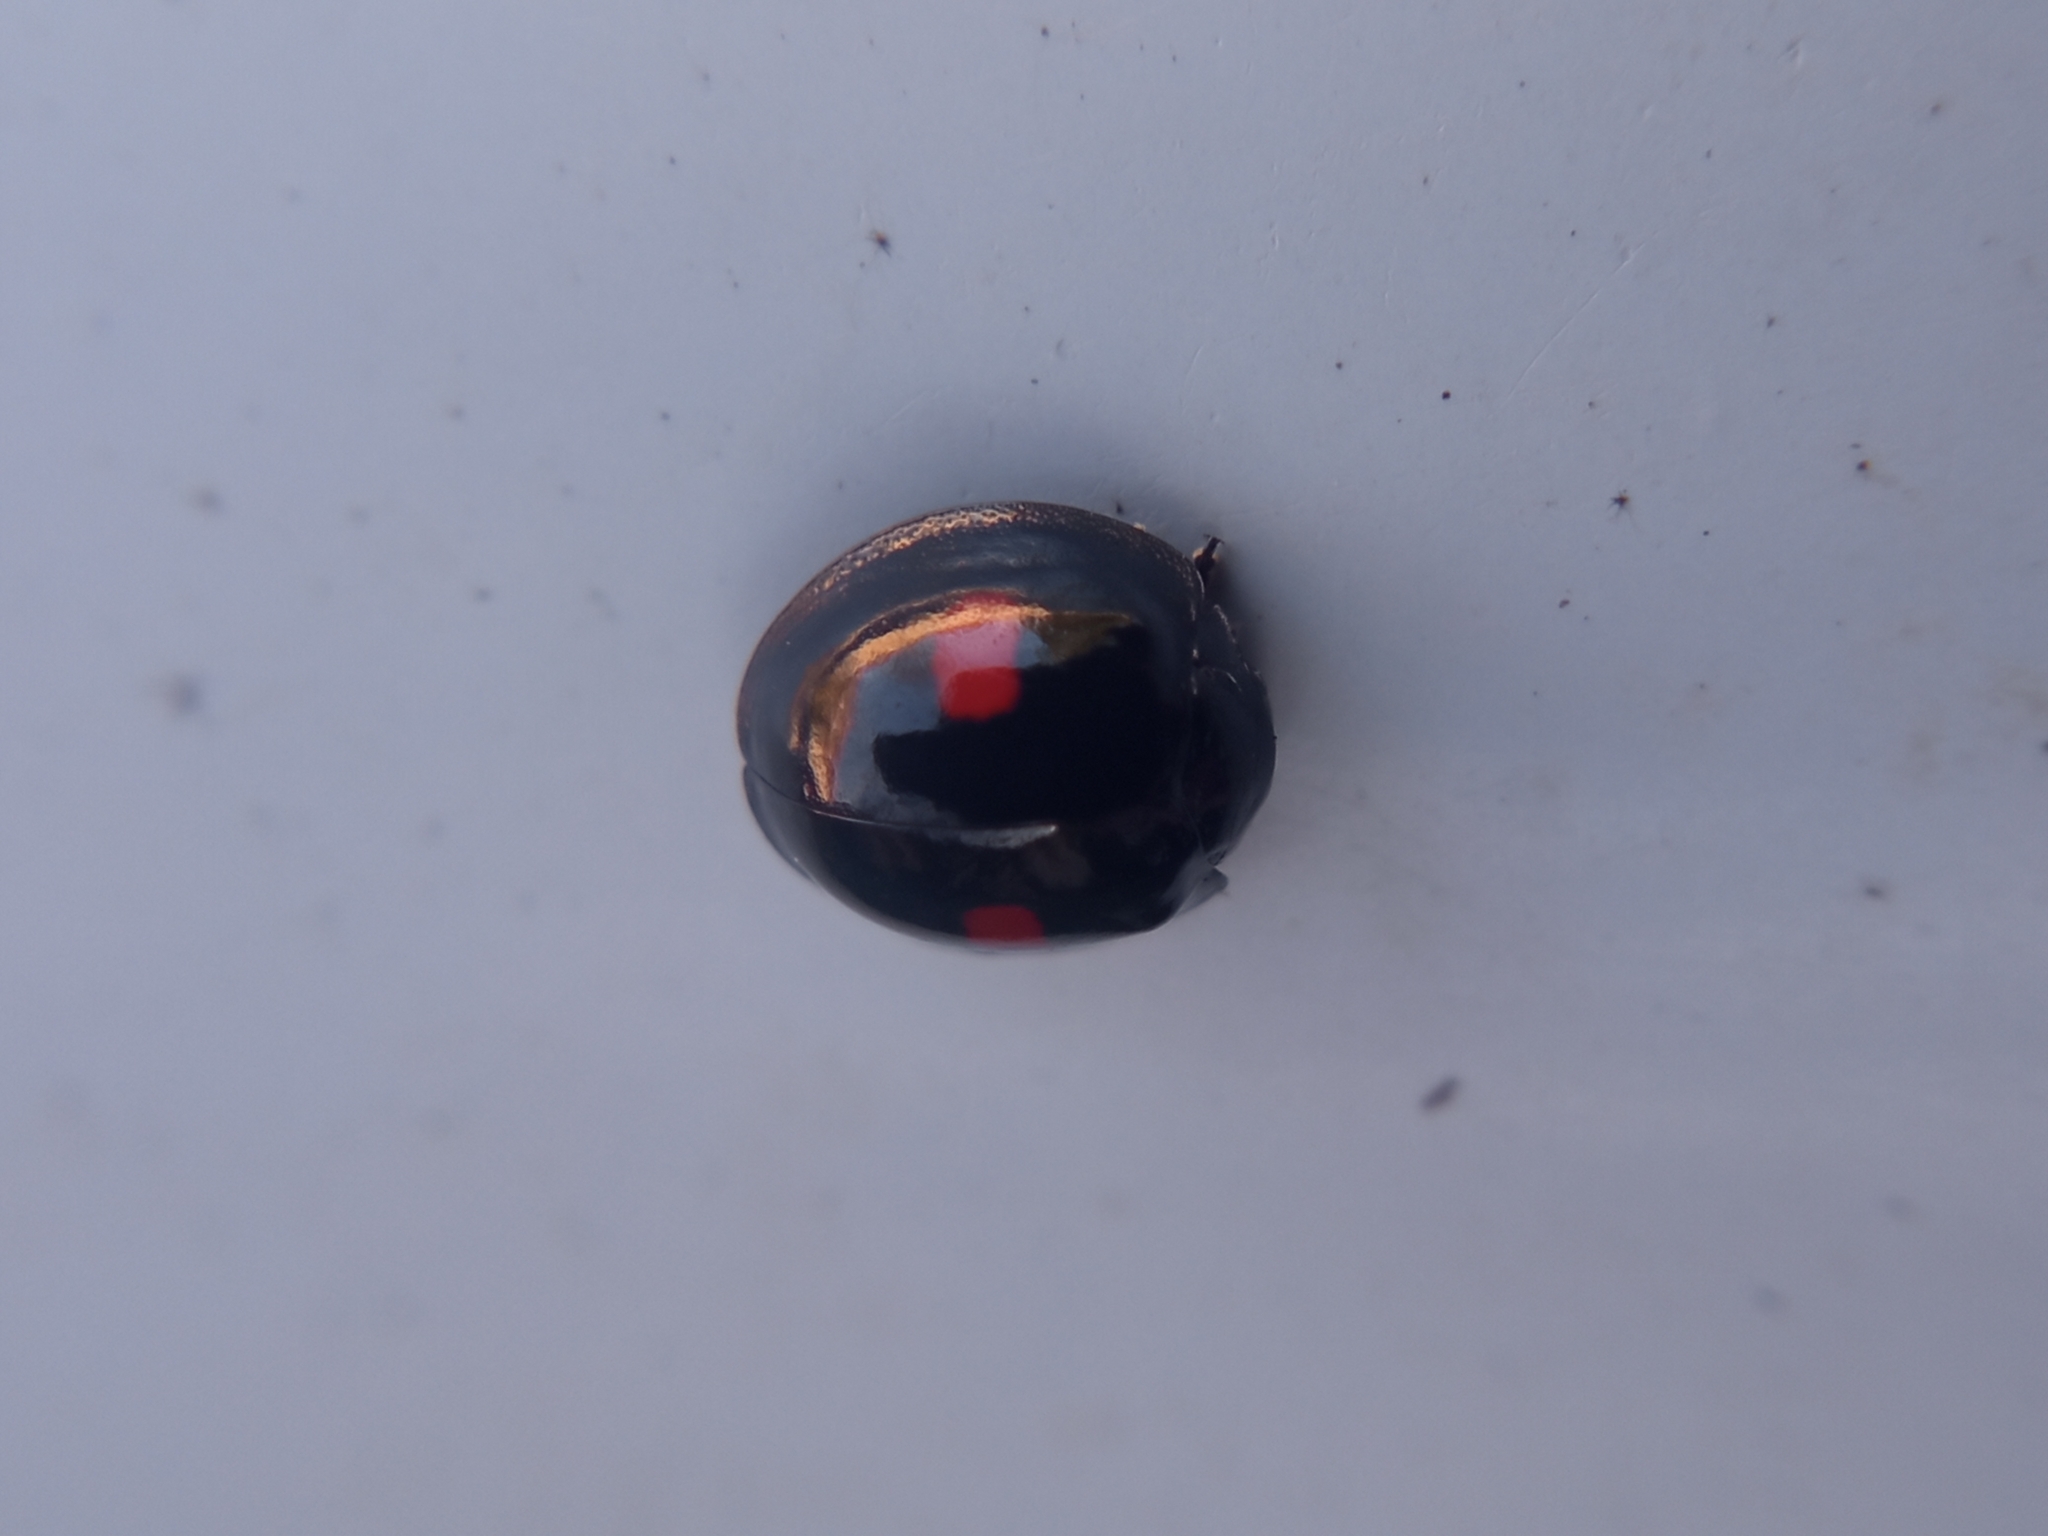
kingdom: Animalia
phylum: Arthropoda
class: Insecta
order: Coleoptera
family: Coccinellidae
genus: Chilocorus
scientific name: Chilocorus renipustulatus
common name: Kidney-spot ladybird
